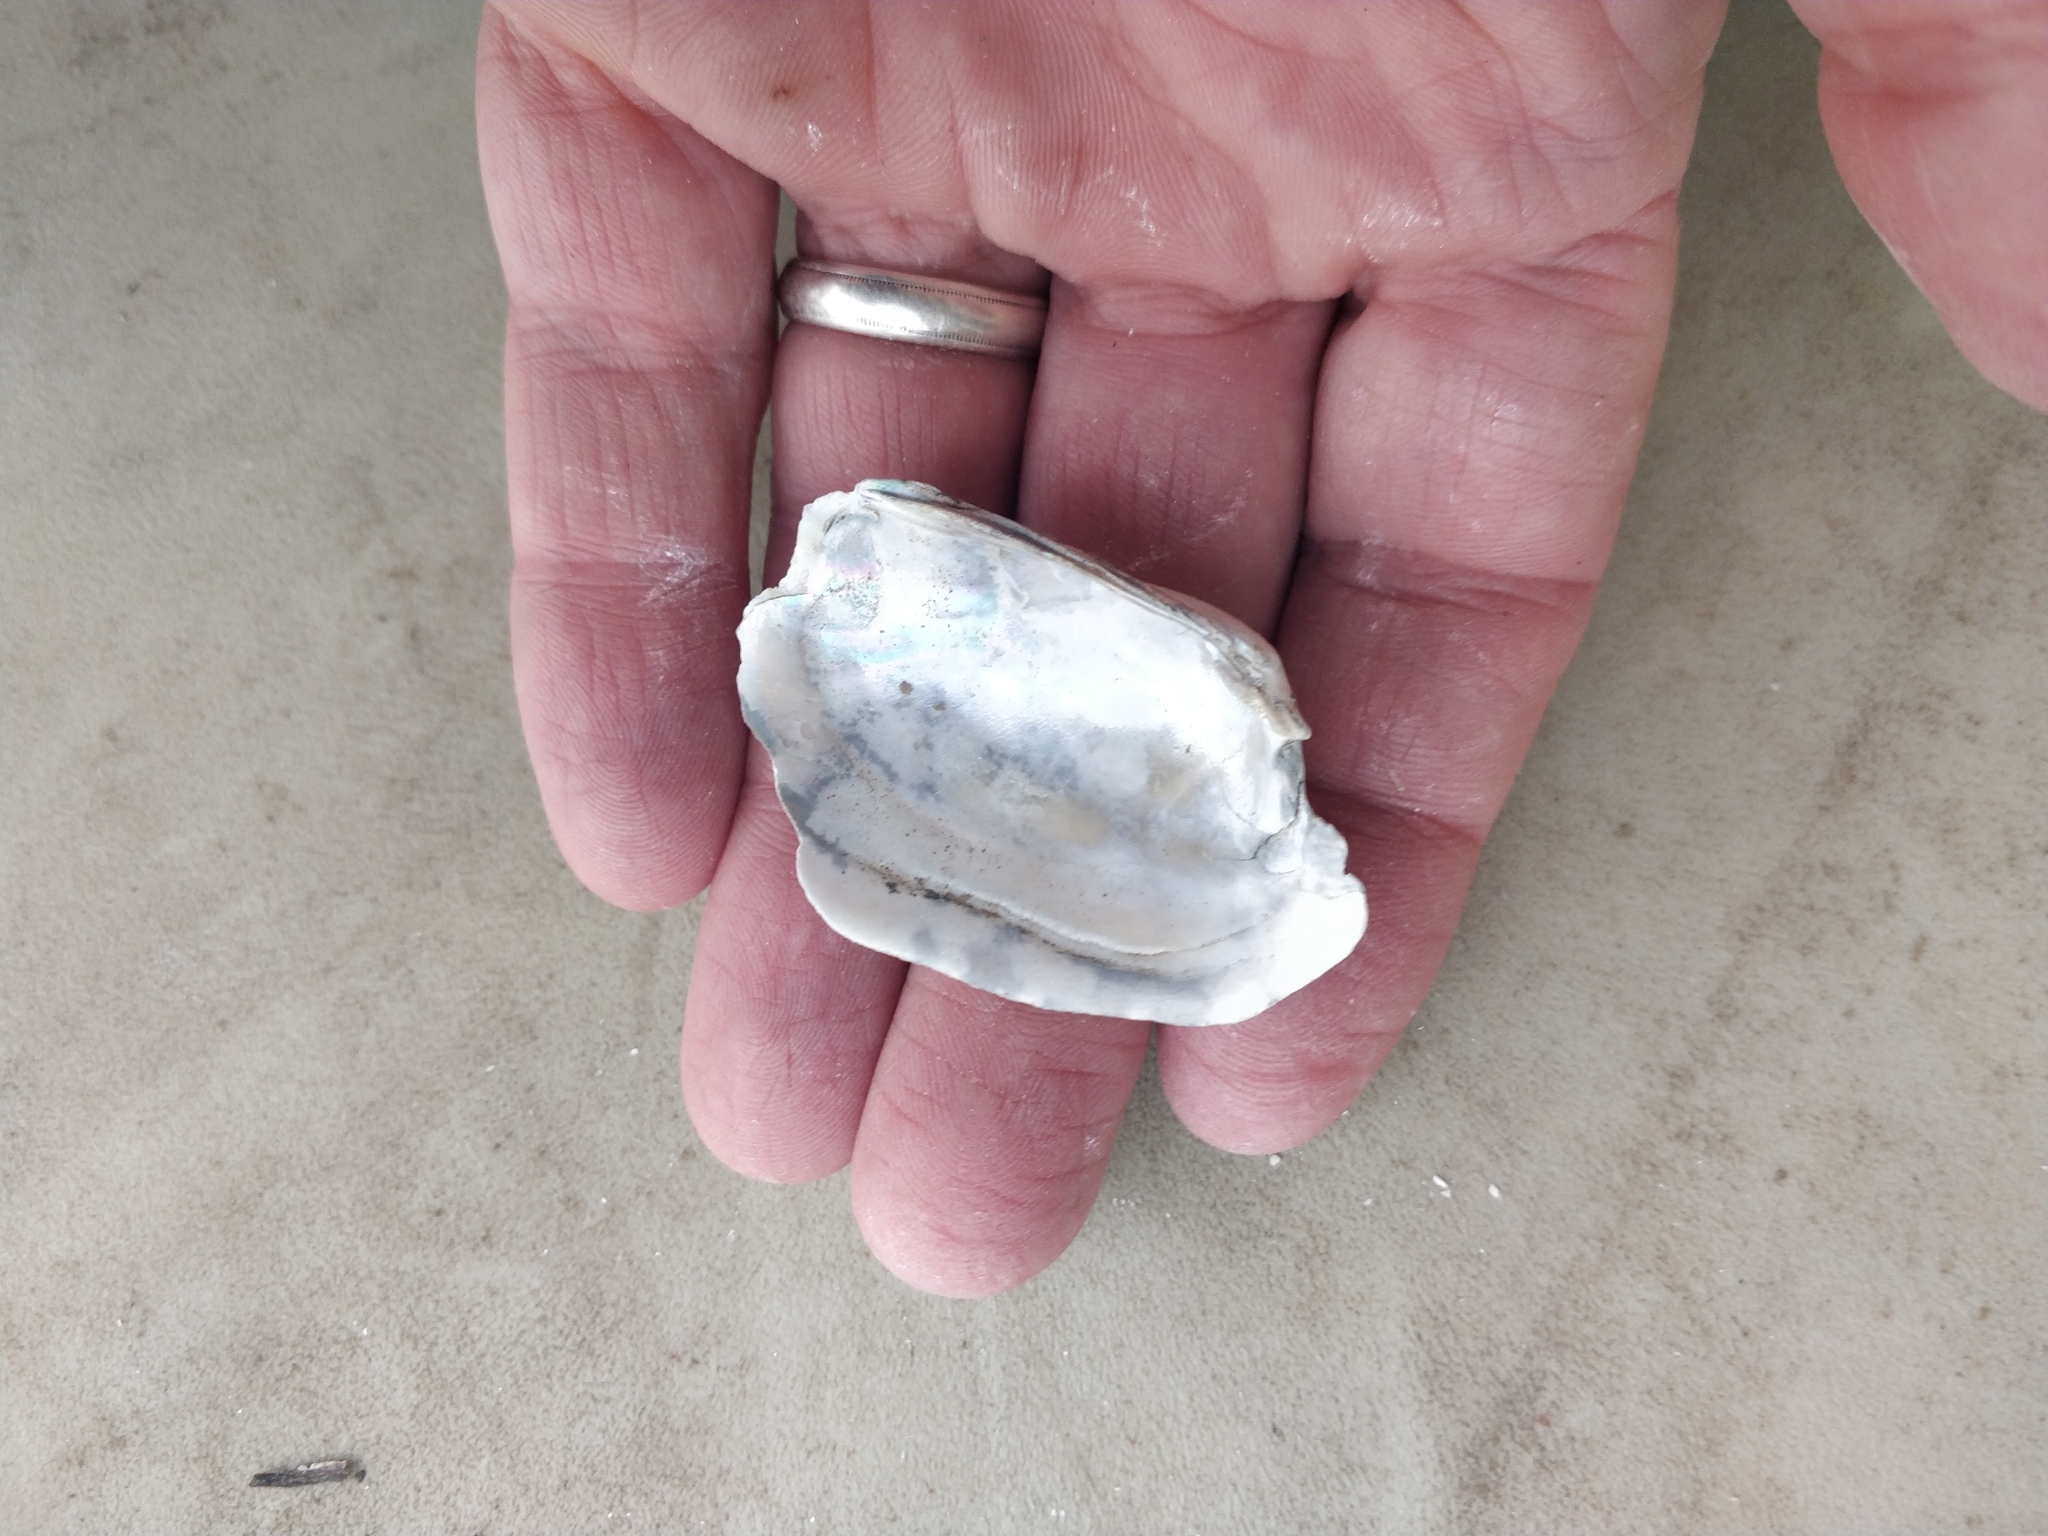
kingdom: Animalia
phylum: Mollusca
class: Bivalvia
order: Unionida
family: Unionidae
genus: Lampsilis
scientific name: Lampsilis siliquoidea
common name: Fatmucket
